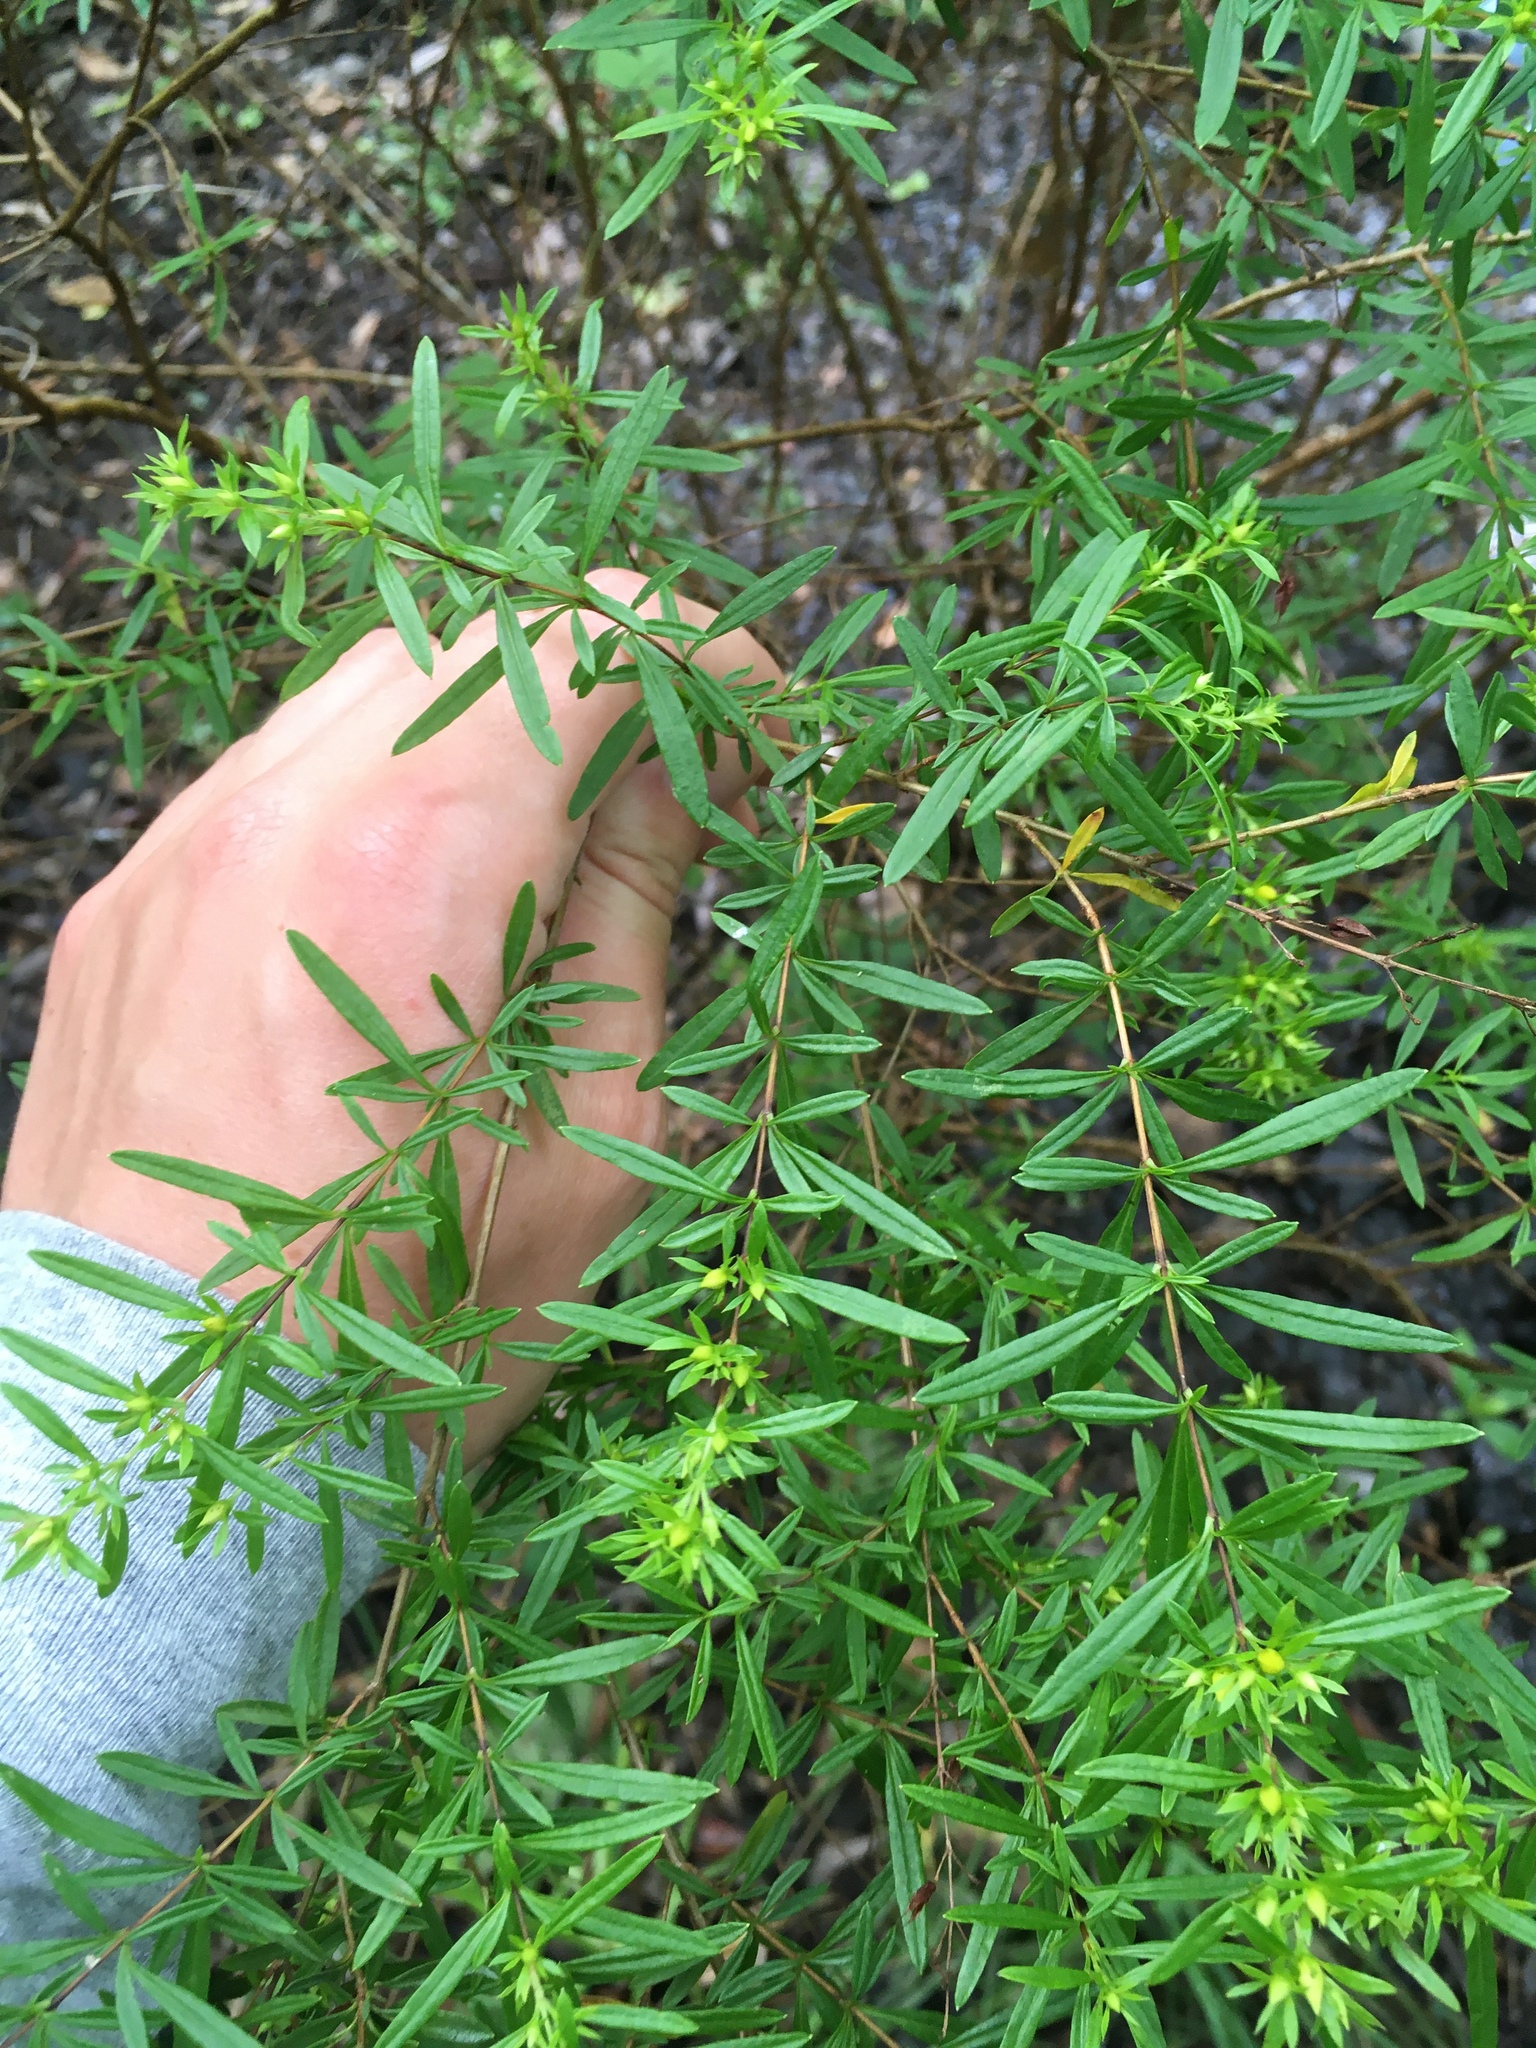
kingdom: Plantae
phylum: Tracheophyta
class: Magnoliopsida
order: Malpighiales
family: Hypericaceae
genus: Hypericum
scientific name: Hypericum galioides
